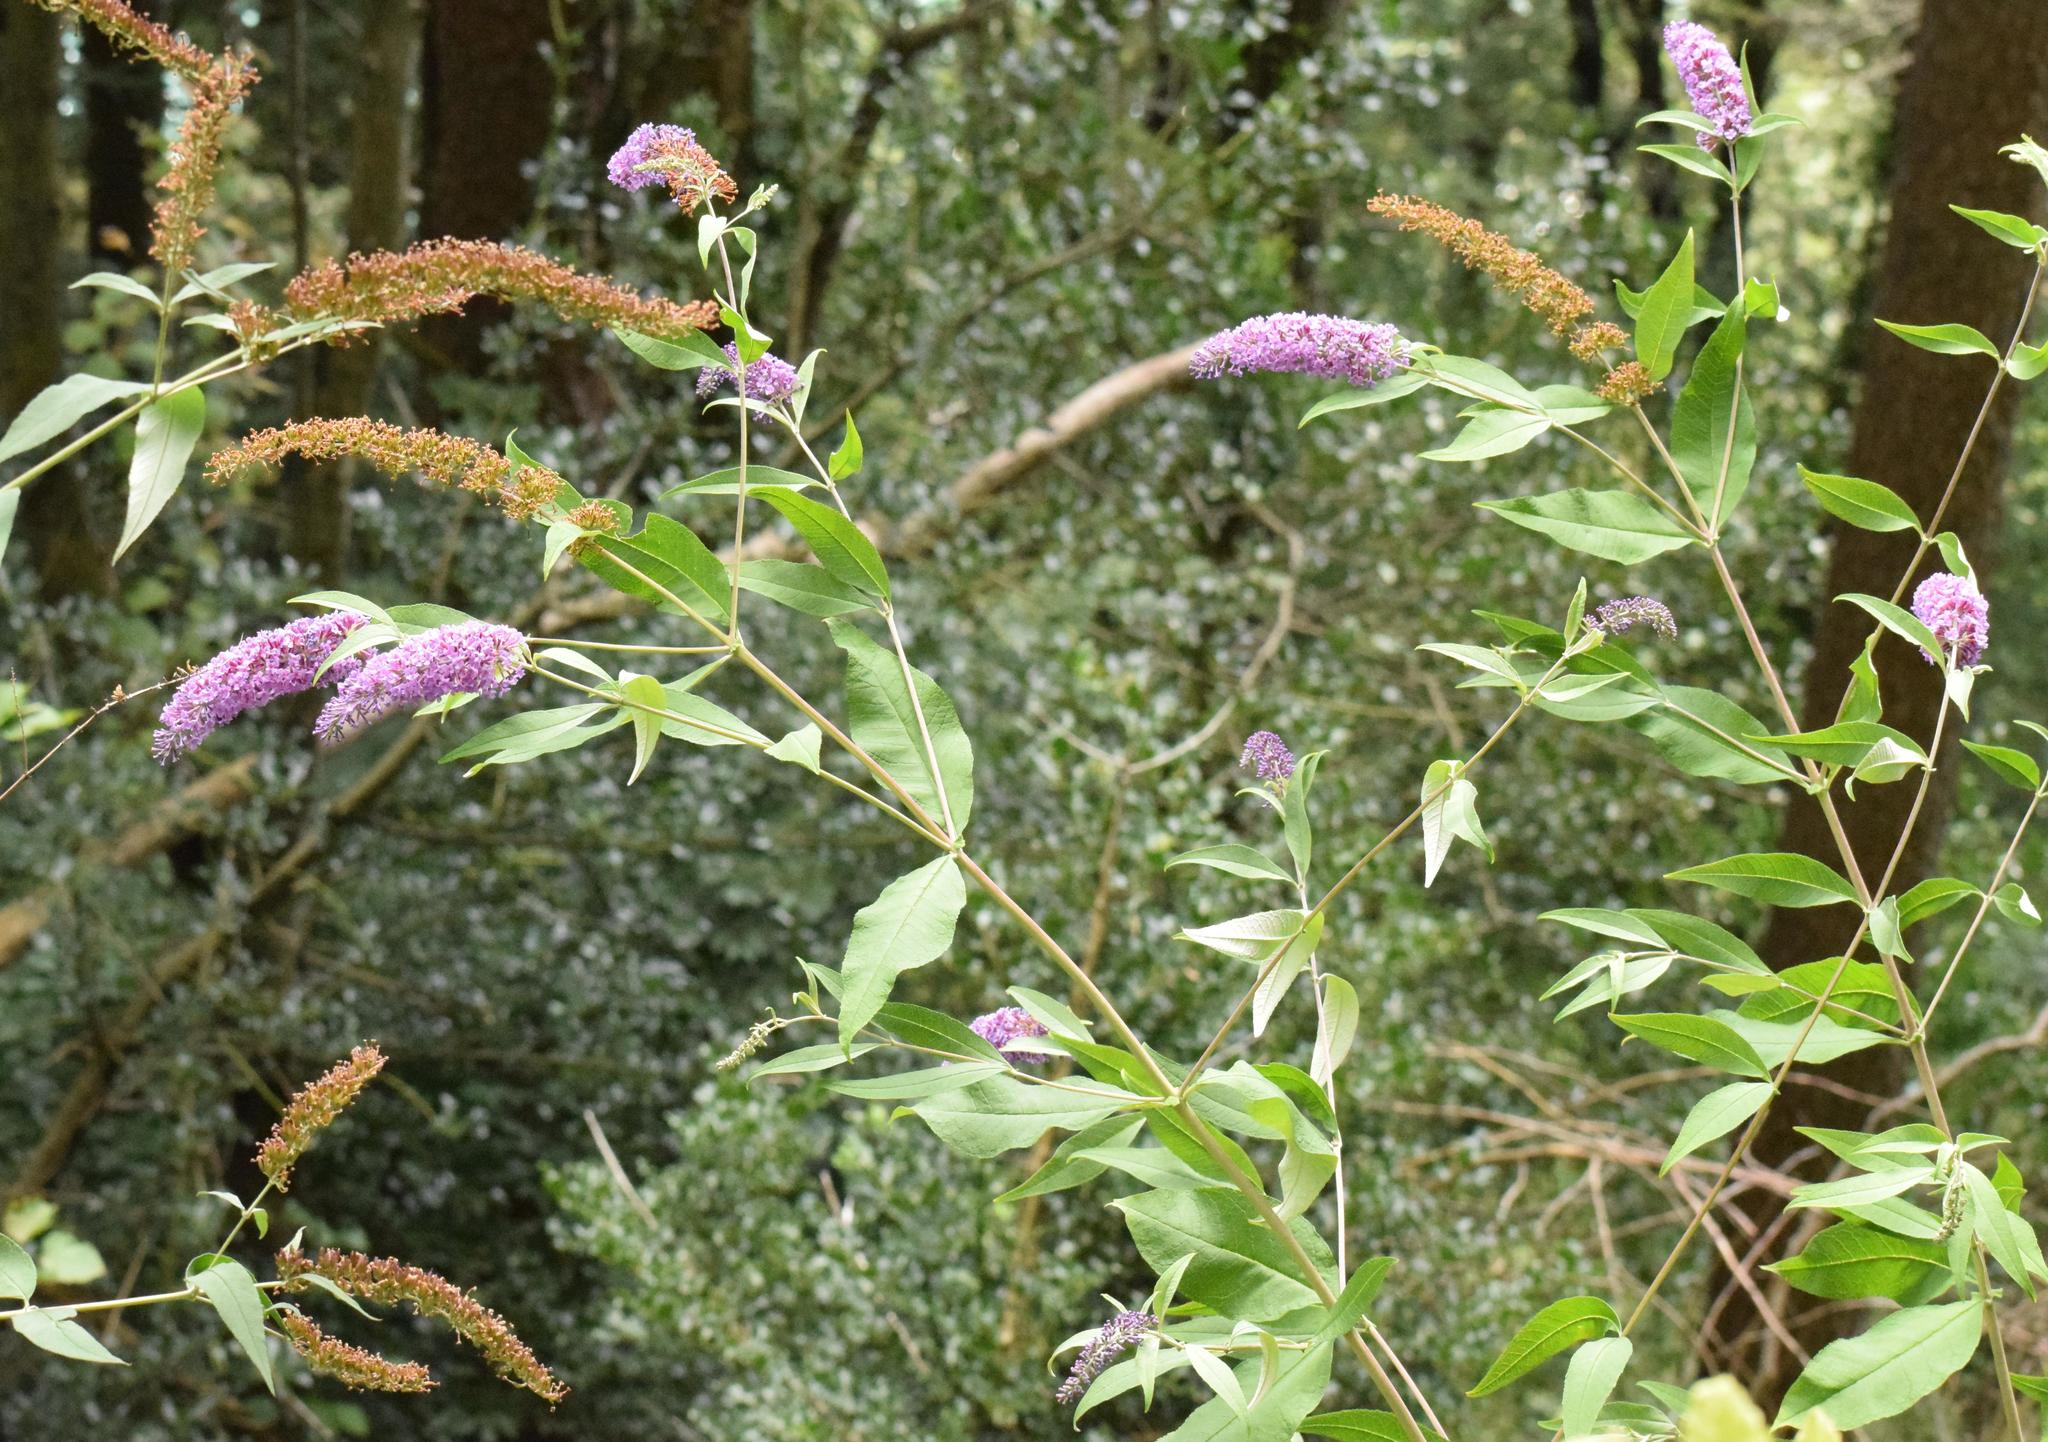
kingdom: Plantae
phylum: Tracheophyta
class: Magnoliopsida
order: Lamiales
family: Scrophulariaceae
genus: Buddleja
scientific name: Buddleja davidii
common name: Butterfly-bush
